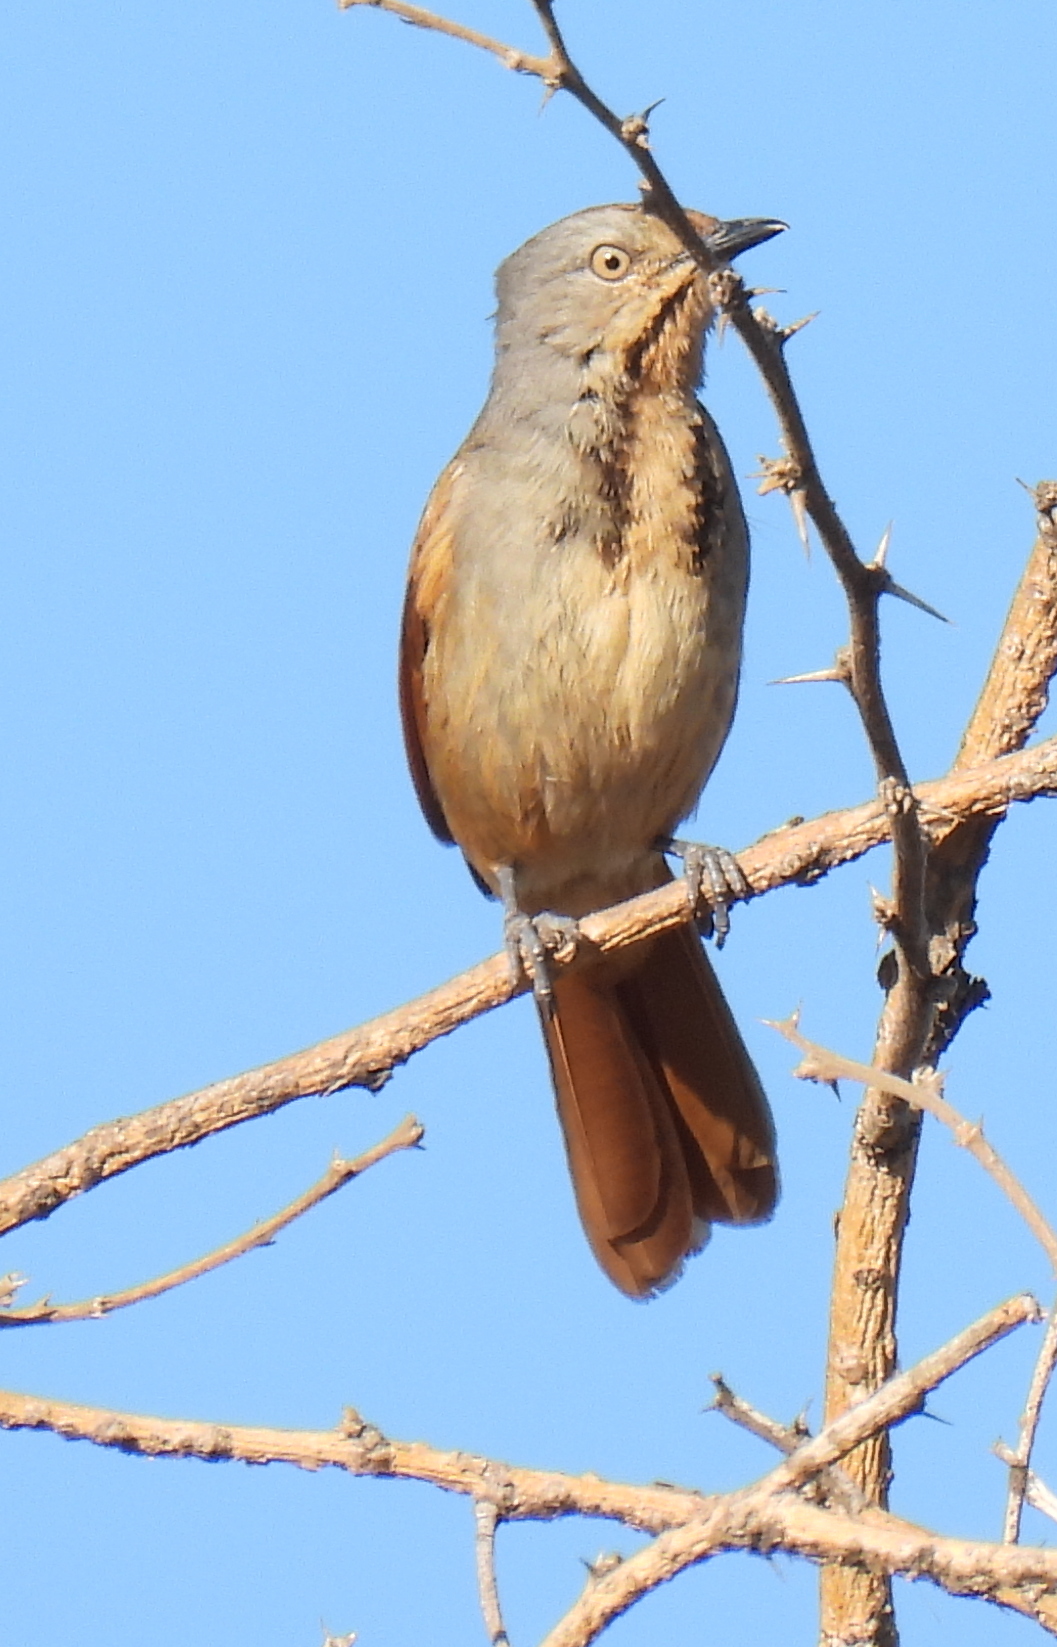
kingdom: Animalia
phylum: Chordata
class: Aves
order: Passeriformes
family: Muscicapidae
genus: Cichladusa
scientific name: Cichladusa arquata
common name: Collared palm thrush
